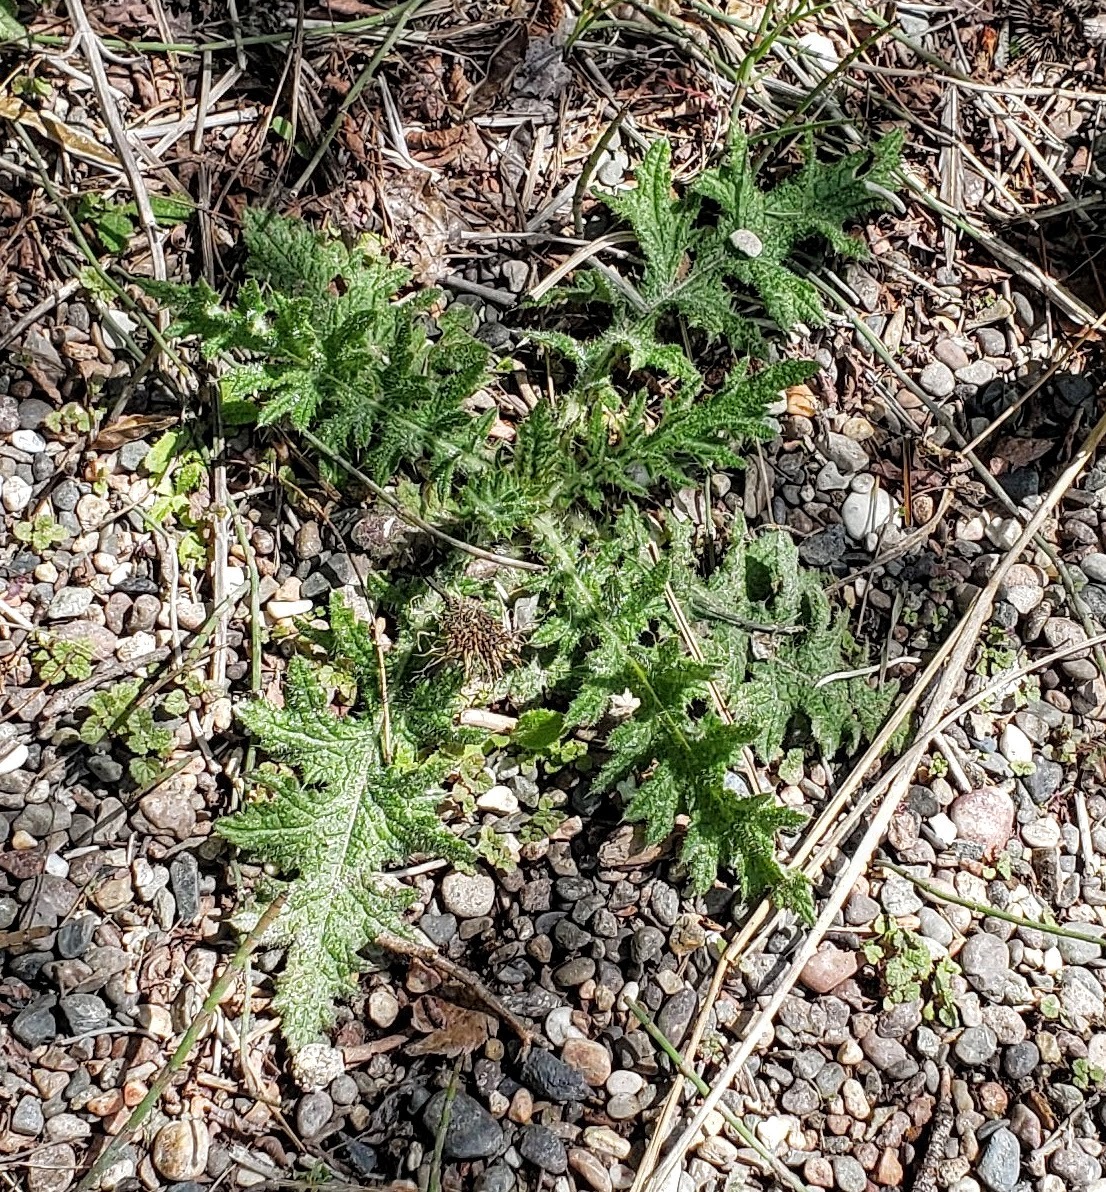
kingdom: Plantae
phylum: Tracheophyta
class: Magnoliopsida
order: Asterales
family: Asteraceae
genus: Cirsium
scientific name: Cirsium vulgare
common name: Bull thistle
